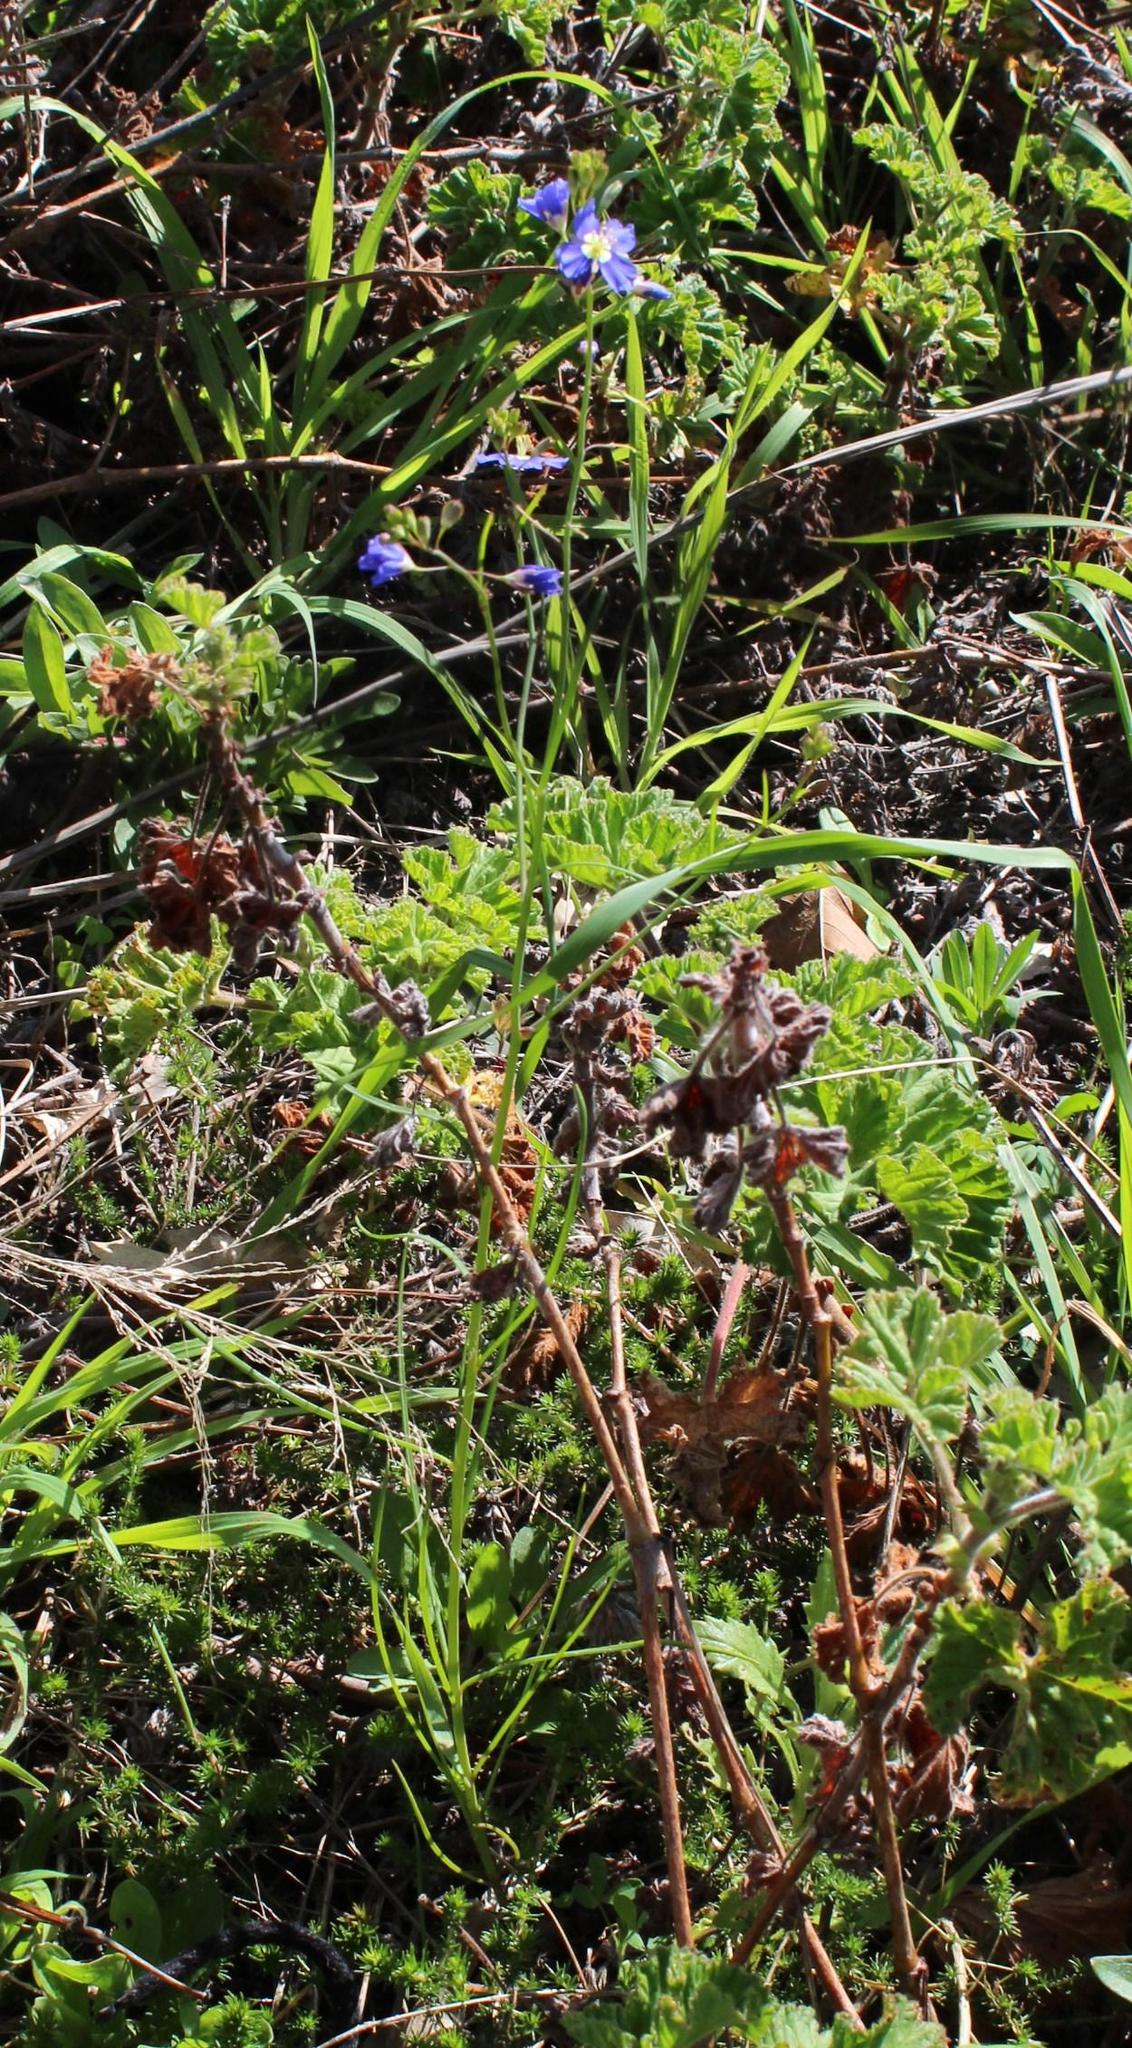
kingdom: Plantae
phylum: Tracheophyta
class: Magnoliopsida
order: Brassicales
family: Brassicaceae
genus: Heliophila
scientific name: Heliophila coronopifolia
